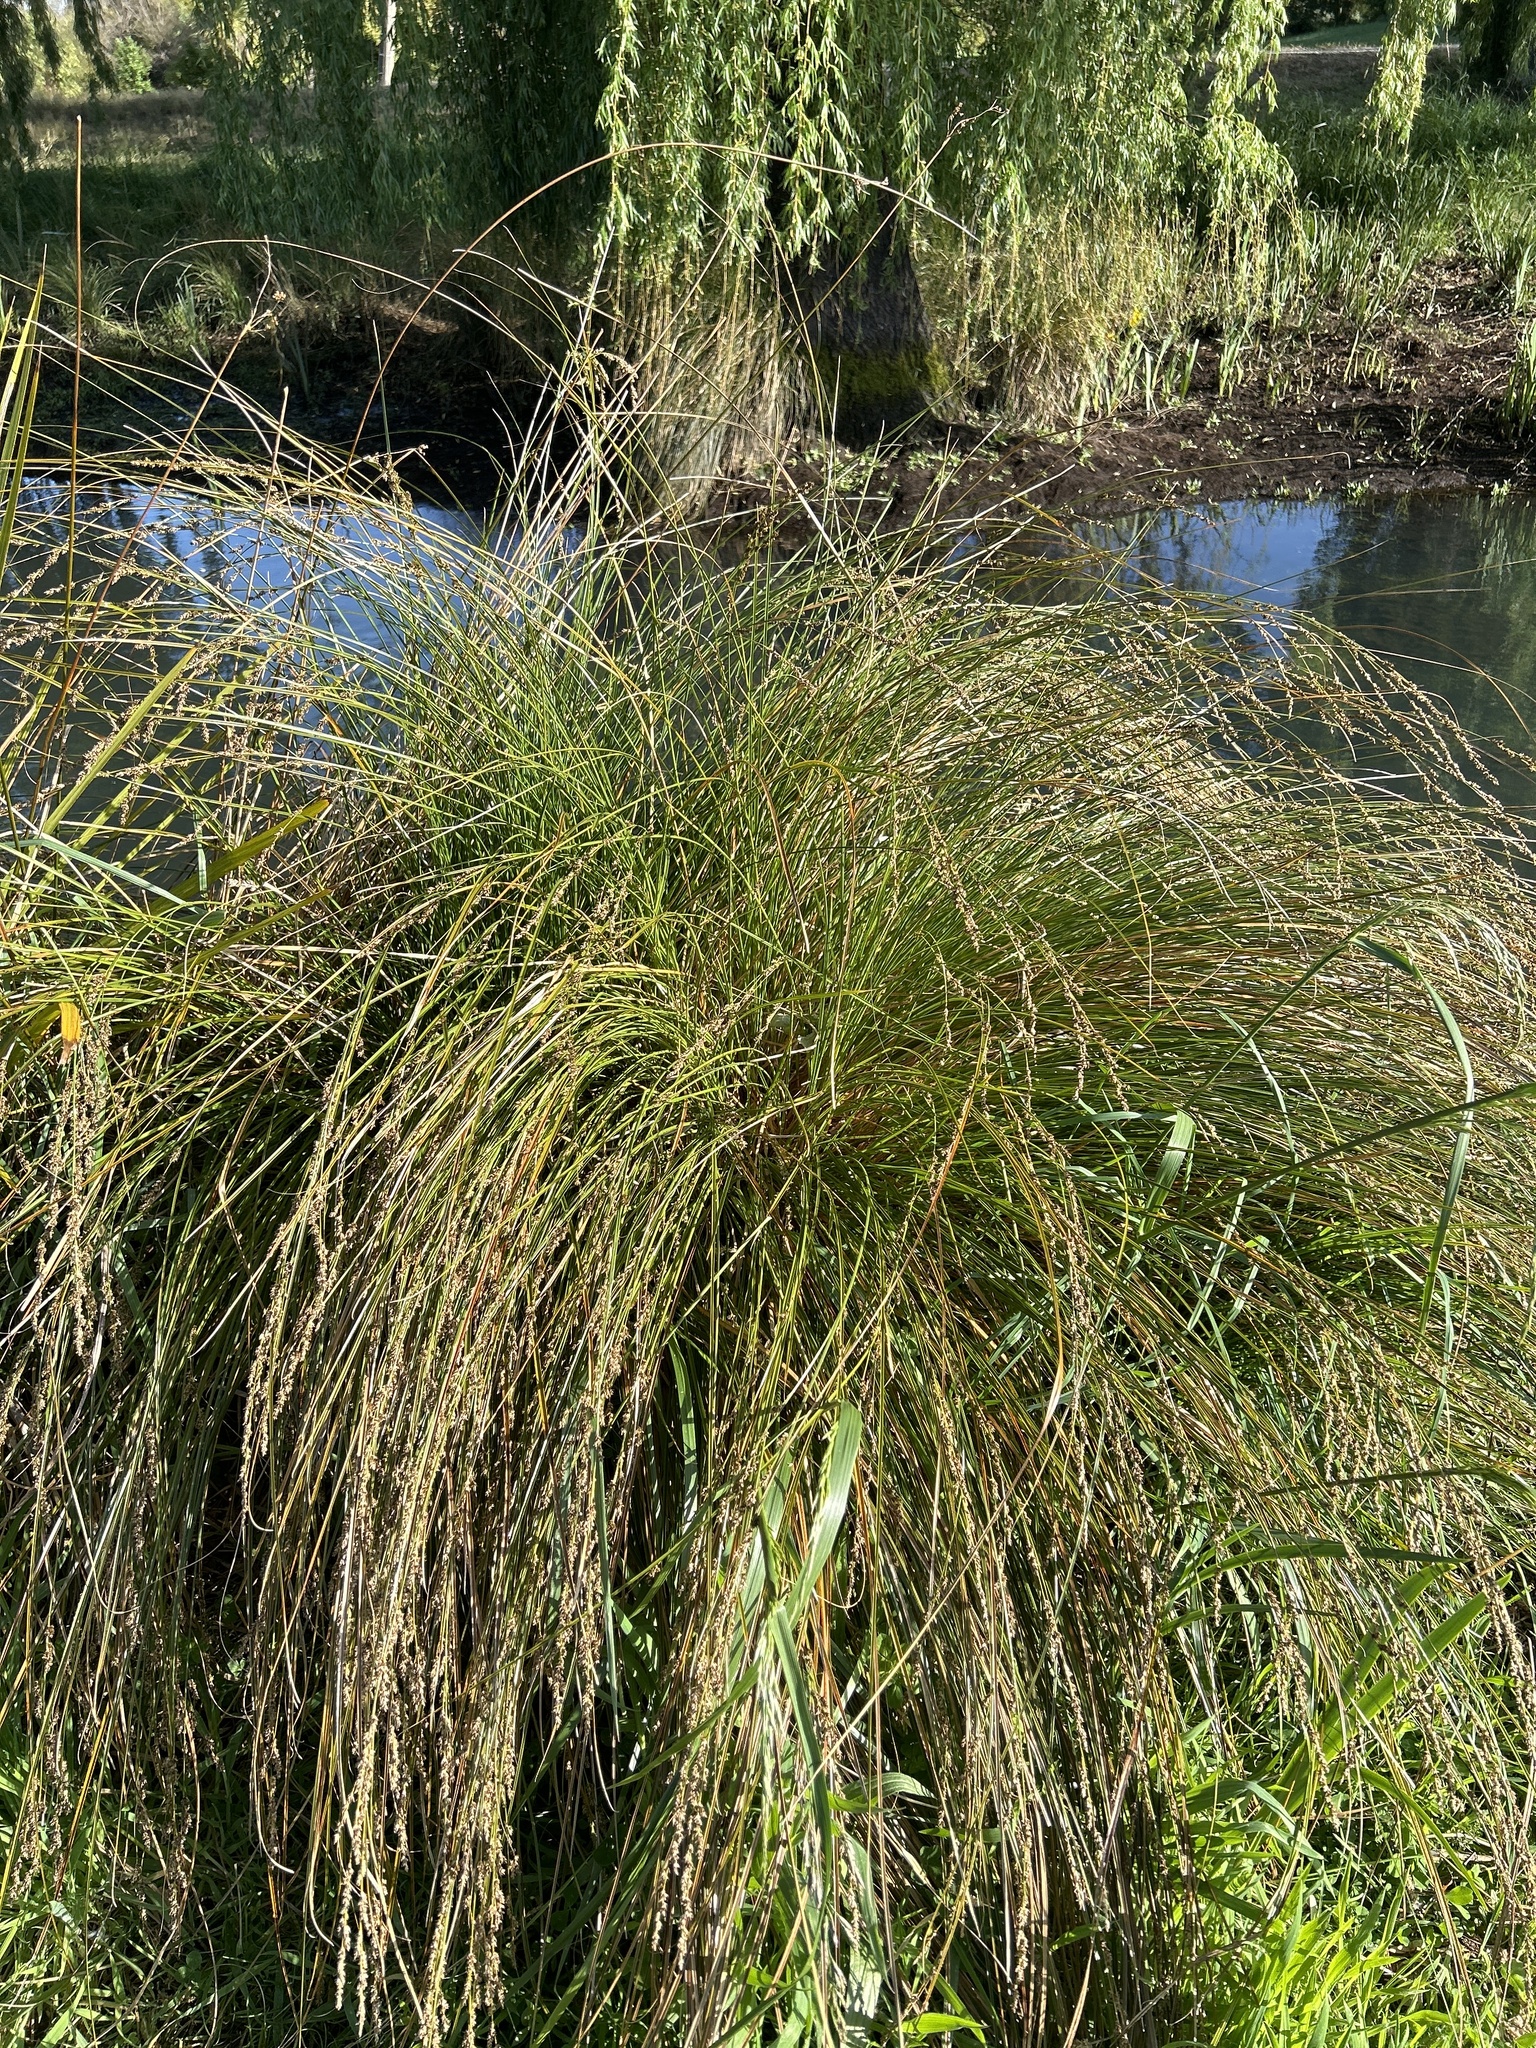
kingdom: Plantae
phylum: Tracheophyta
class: Liliopsida
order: Poales
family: Cyperaceae
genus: Carex
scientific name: Carex secta
